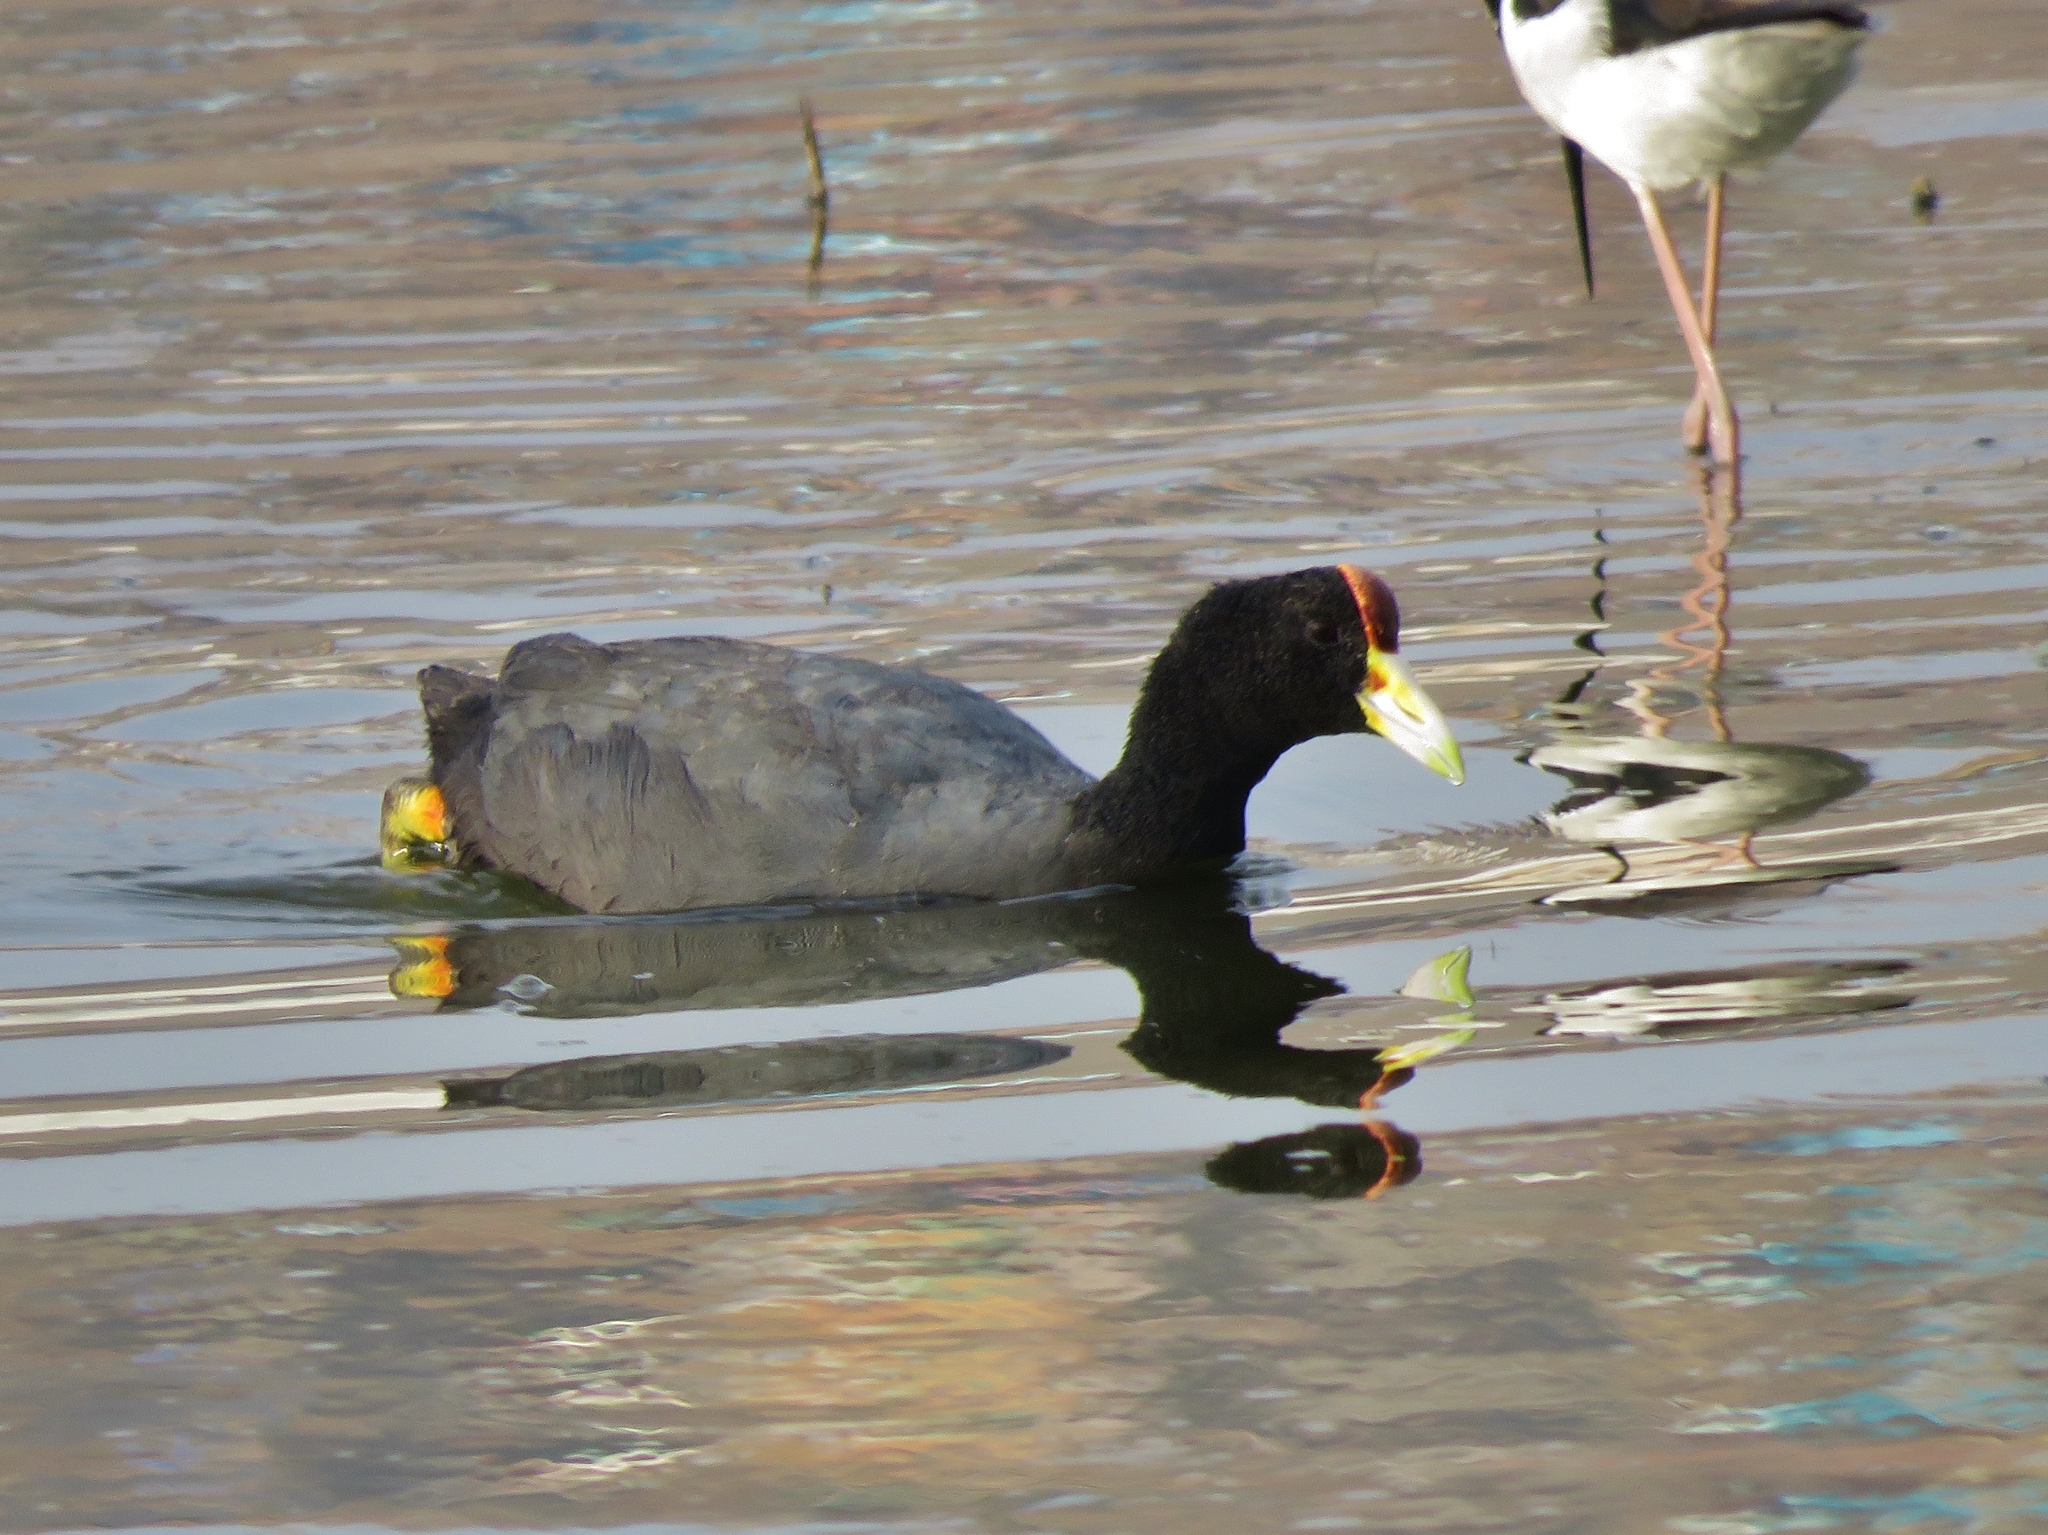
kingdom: Animalia
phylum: Chordata
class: Aves
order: Gruiformes
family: Rallidae
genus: Fulica
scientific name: Fulica ardesiaca
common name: Andean coot
